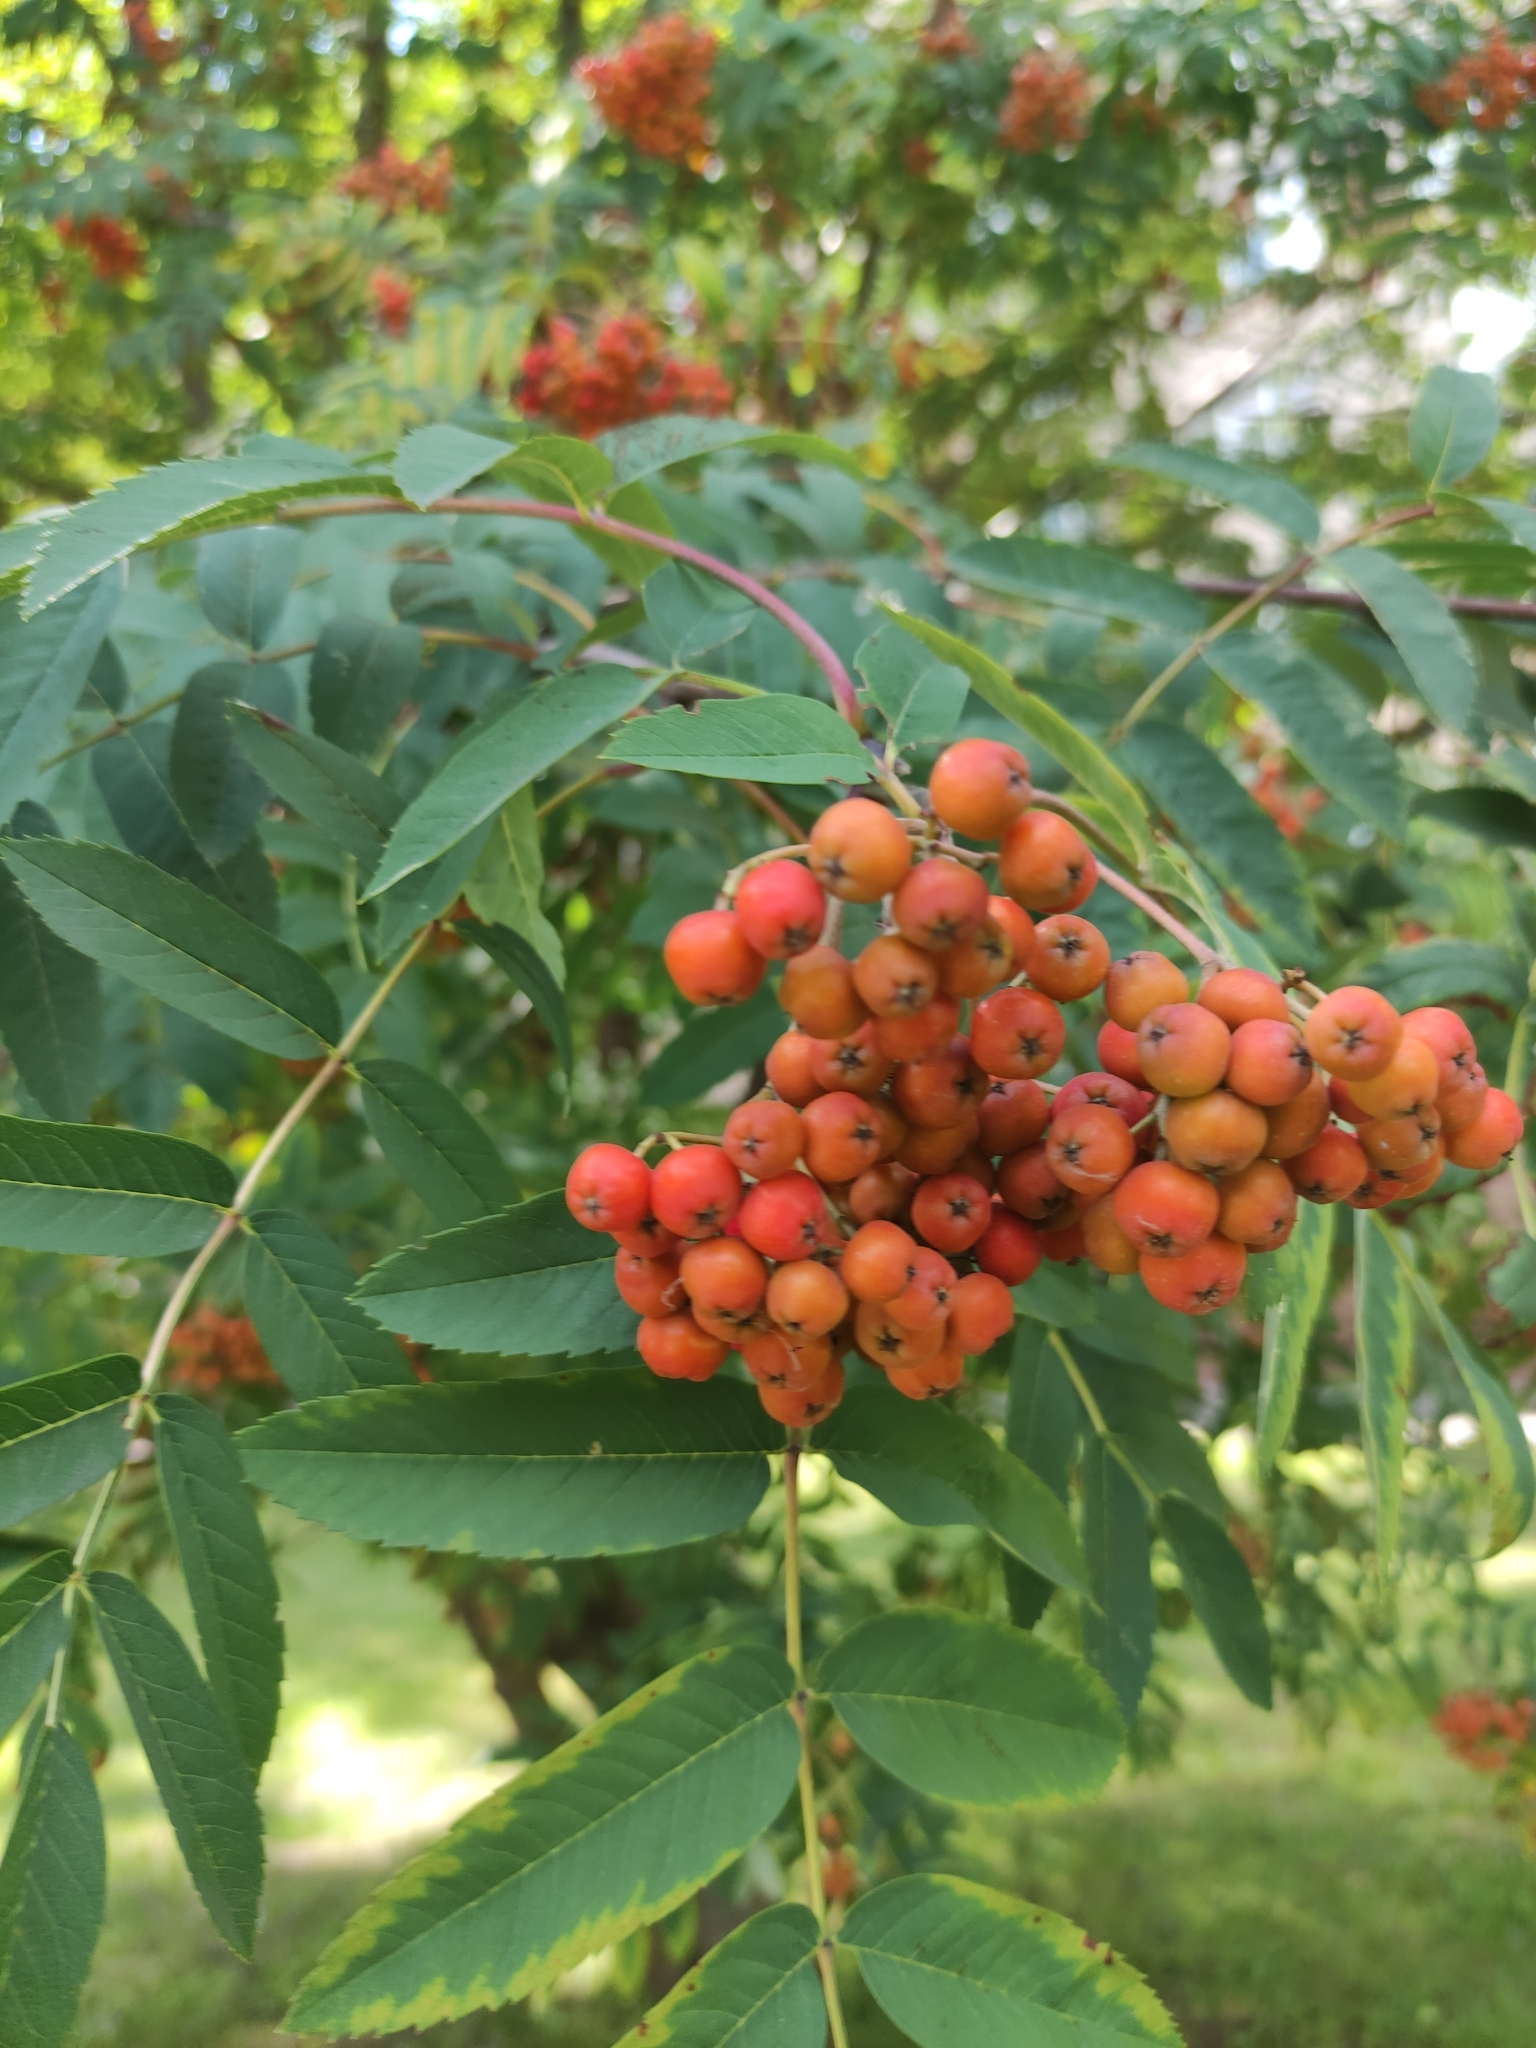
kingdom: Plantae
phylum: Tracheophyta
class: Magnoliopsida
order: Rosales
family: Rosaceae
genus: Sorbus
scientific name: Sorbus aucuparia
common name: Rowan
